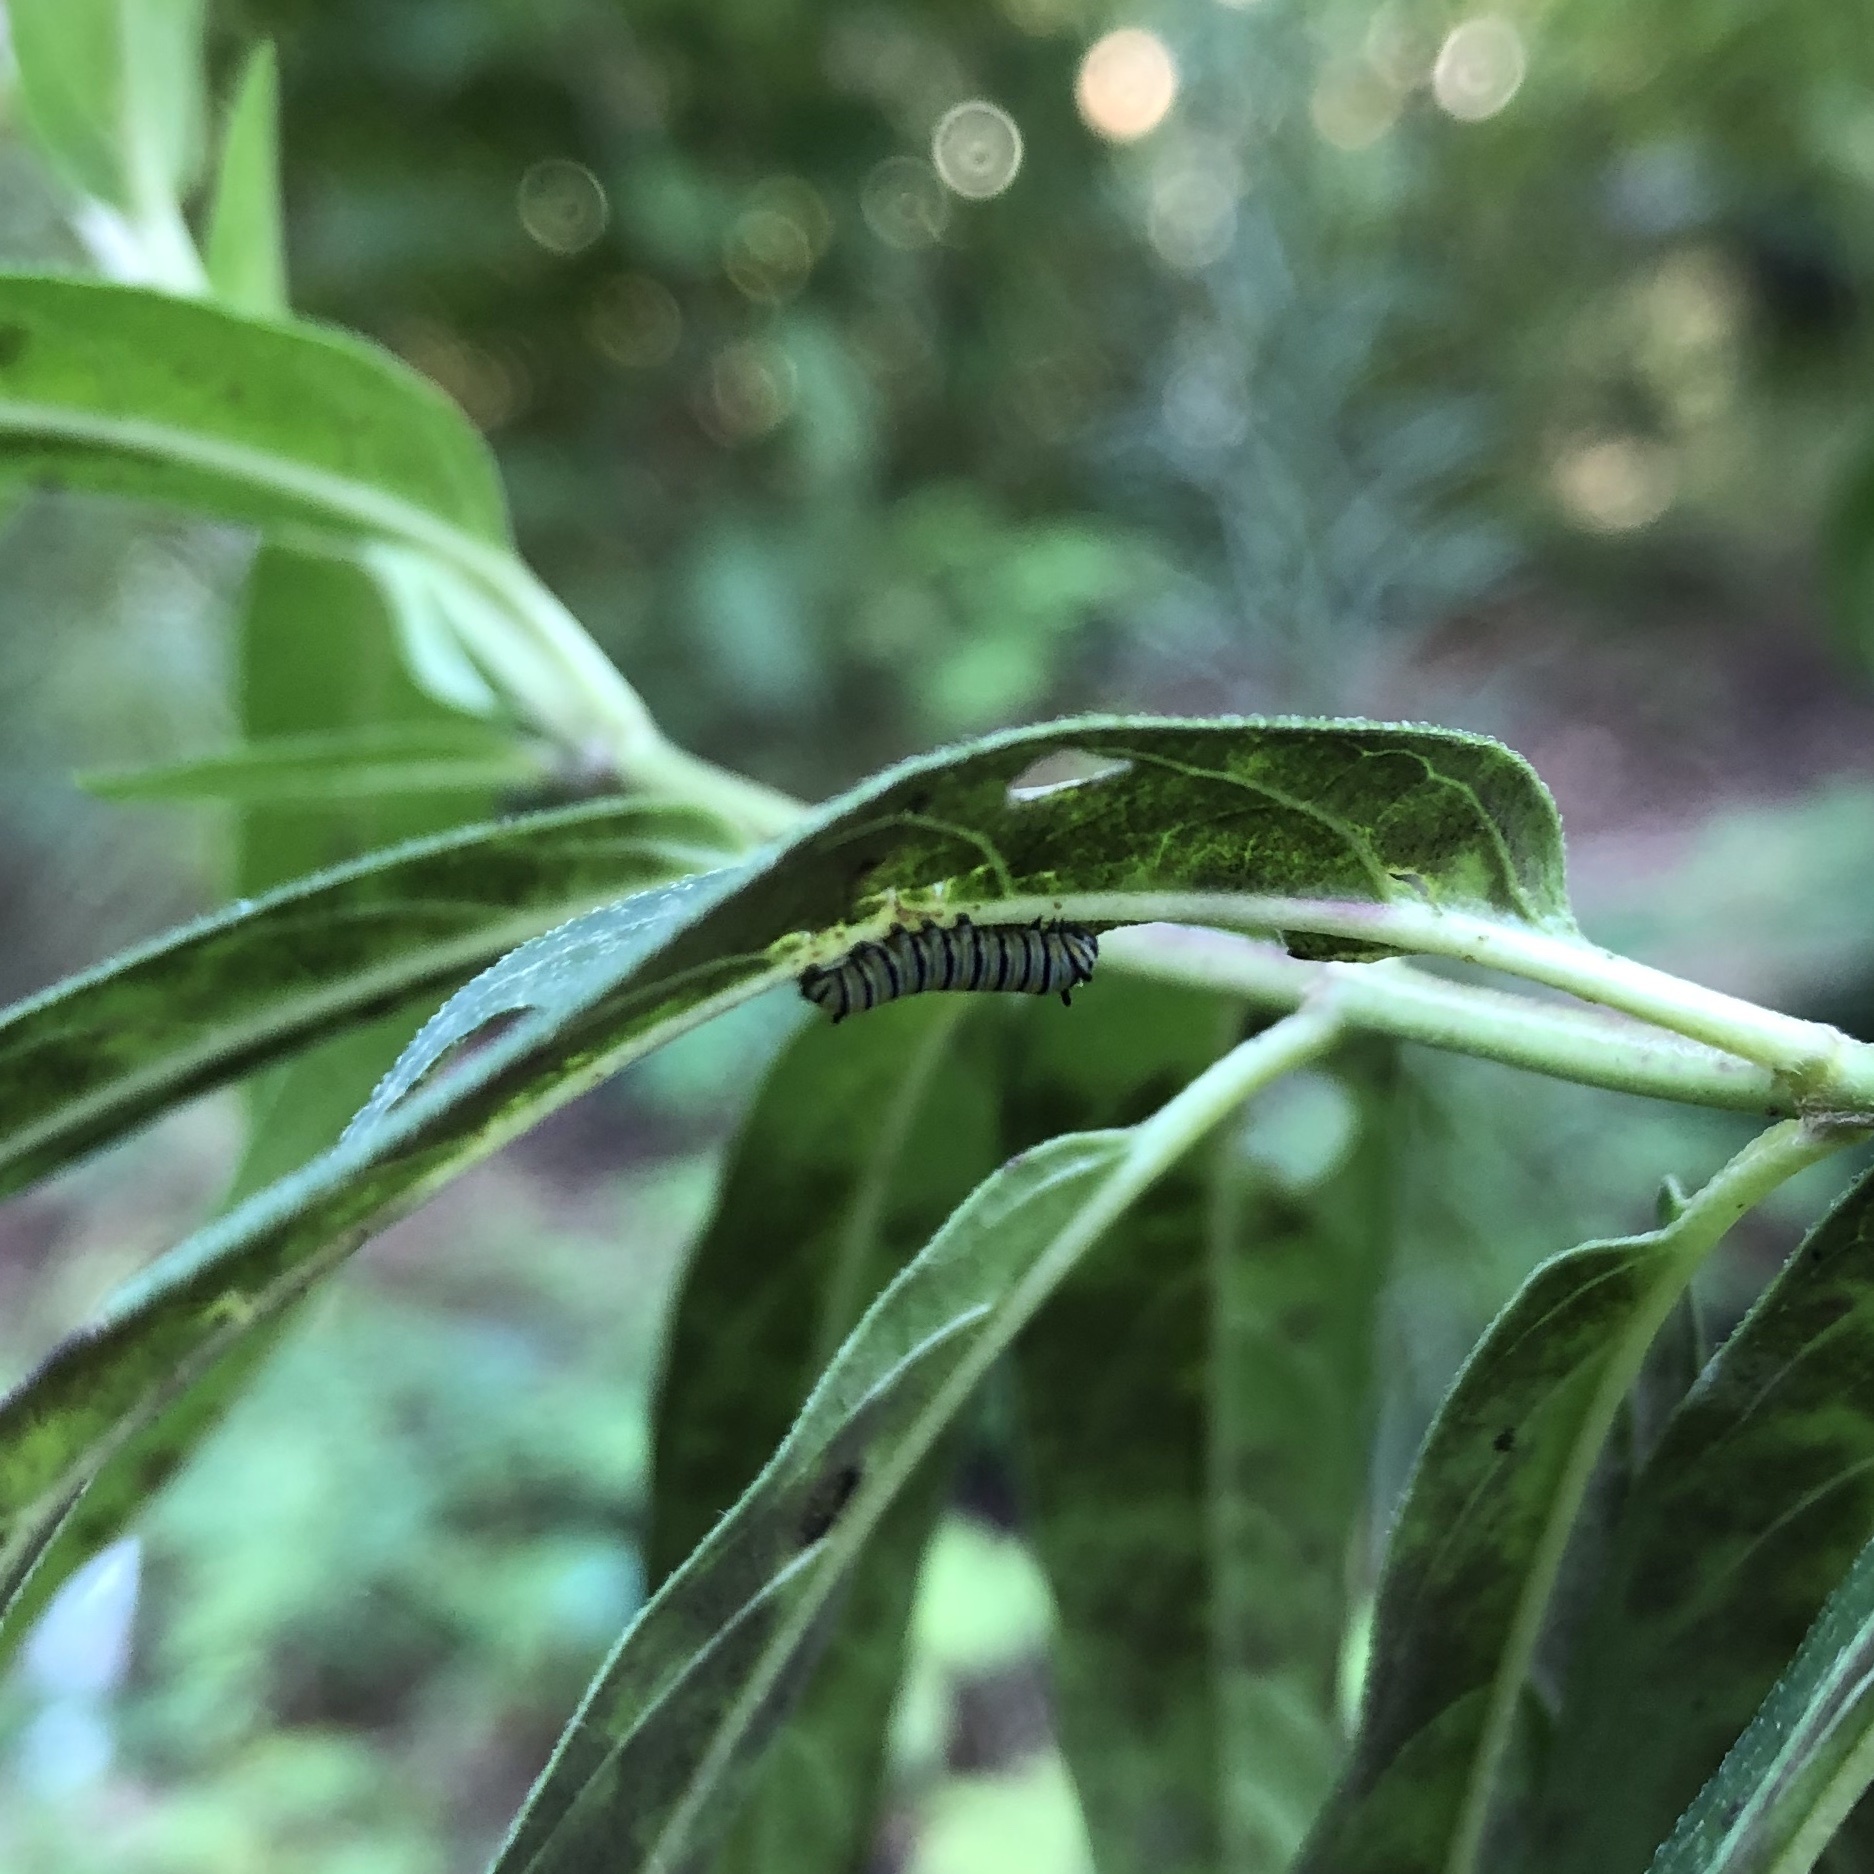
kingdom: Animalia
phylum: Arthropoda
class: Insecta
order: Lepidoptera
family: Nymphalidae
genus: Danaus
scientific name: Danaus plexippus
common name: Monarch
